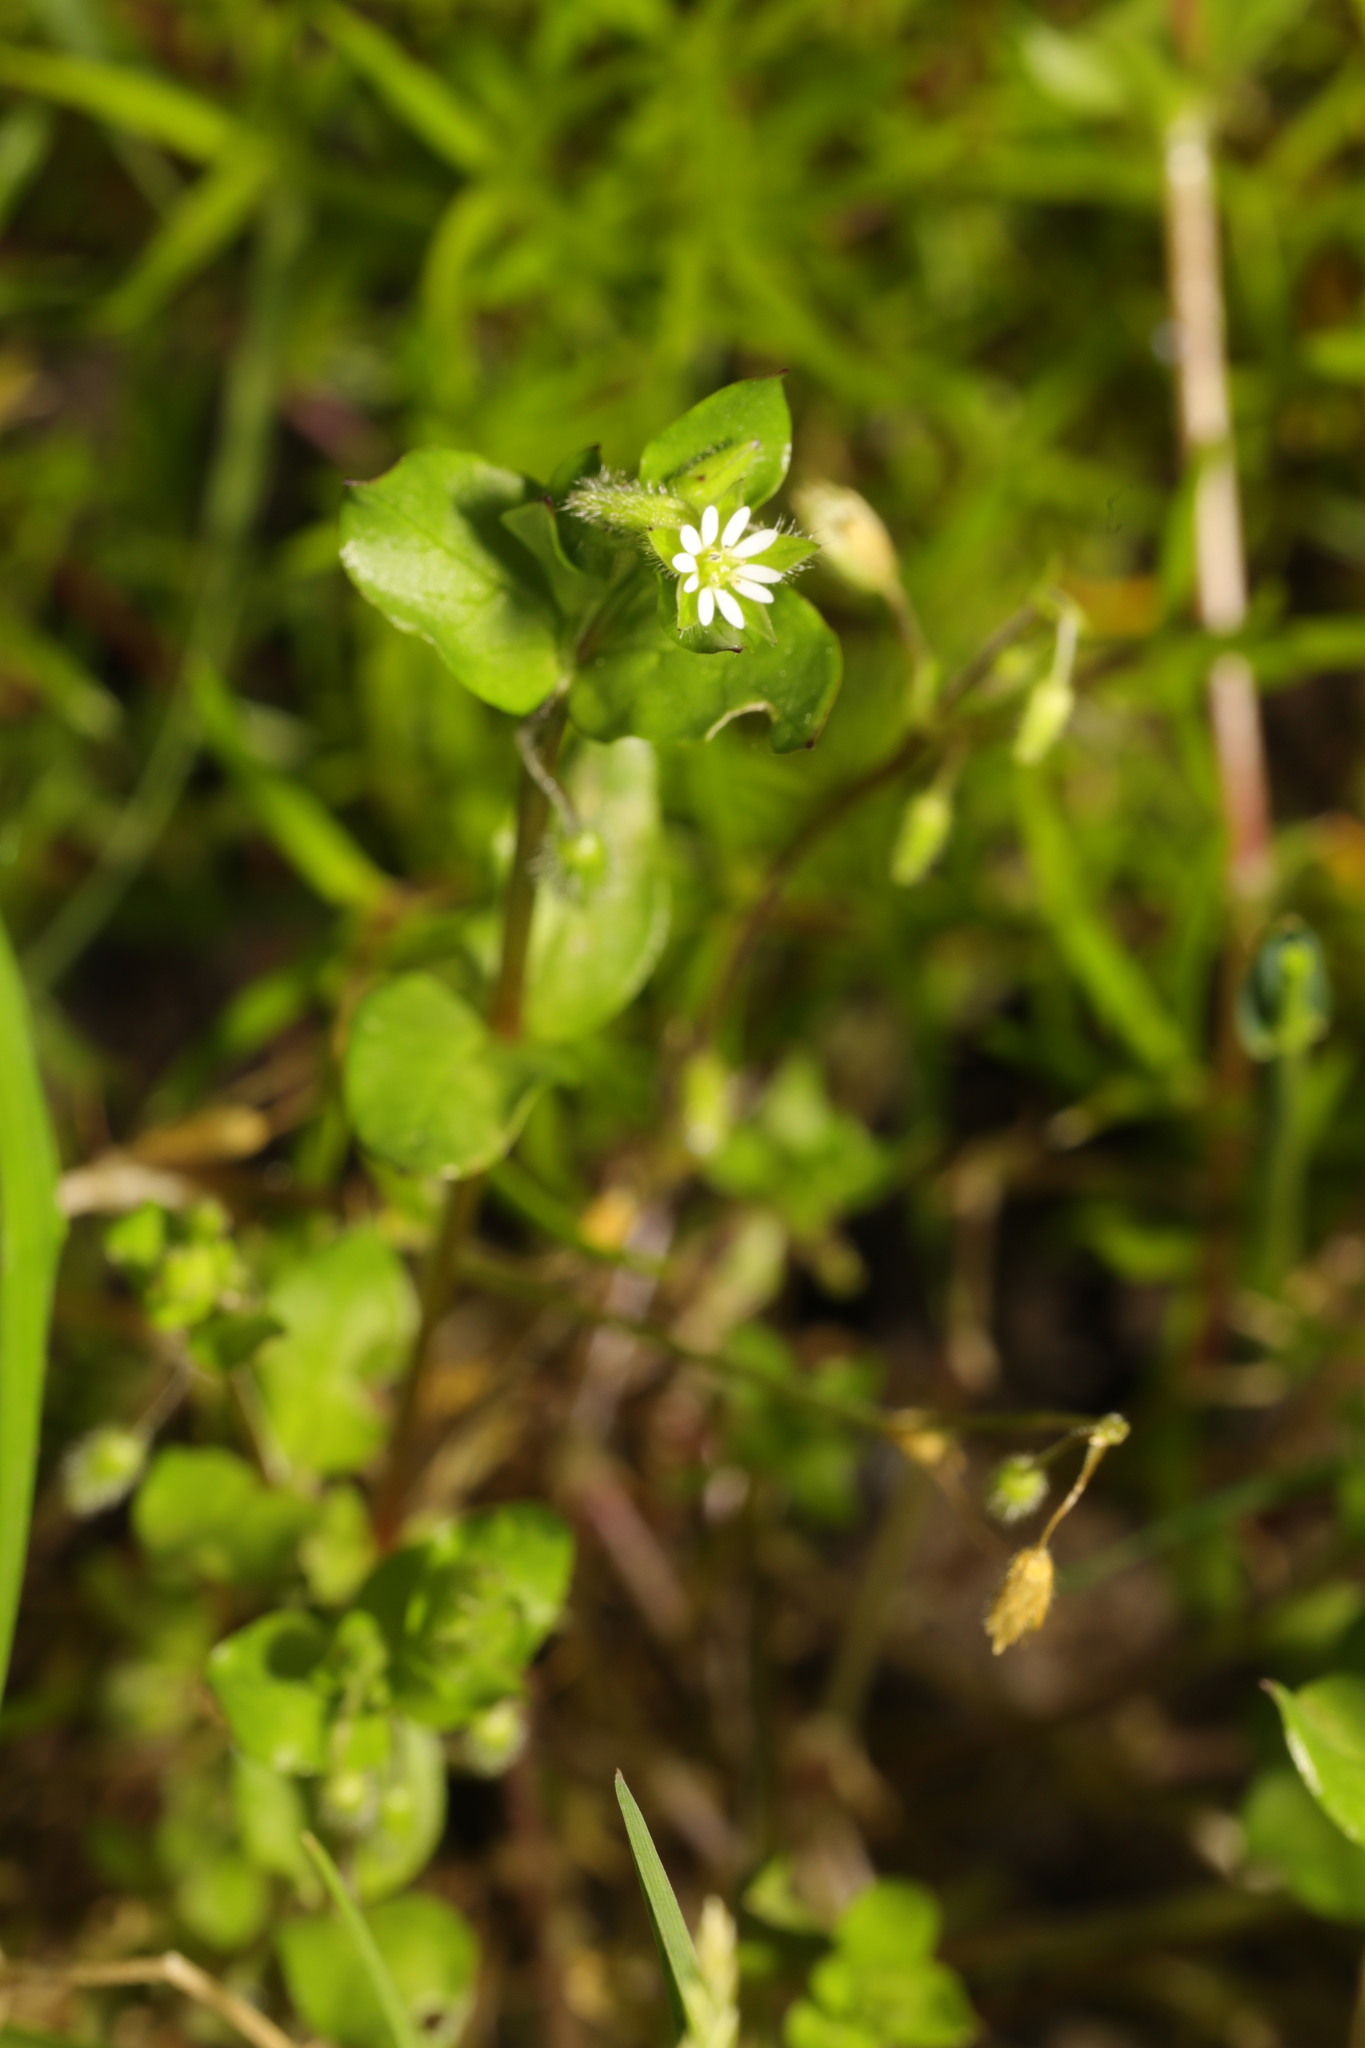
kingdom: Plantae
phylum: Tracheophyta
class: Magnoliopsida
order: Caryophyllales
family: Caryophyllaceae
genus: Stellaria
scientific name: Stellaria media
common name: Common chickweed
